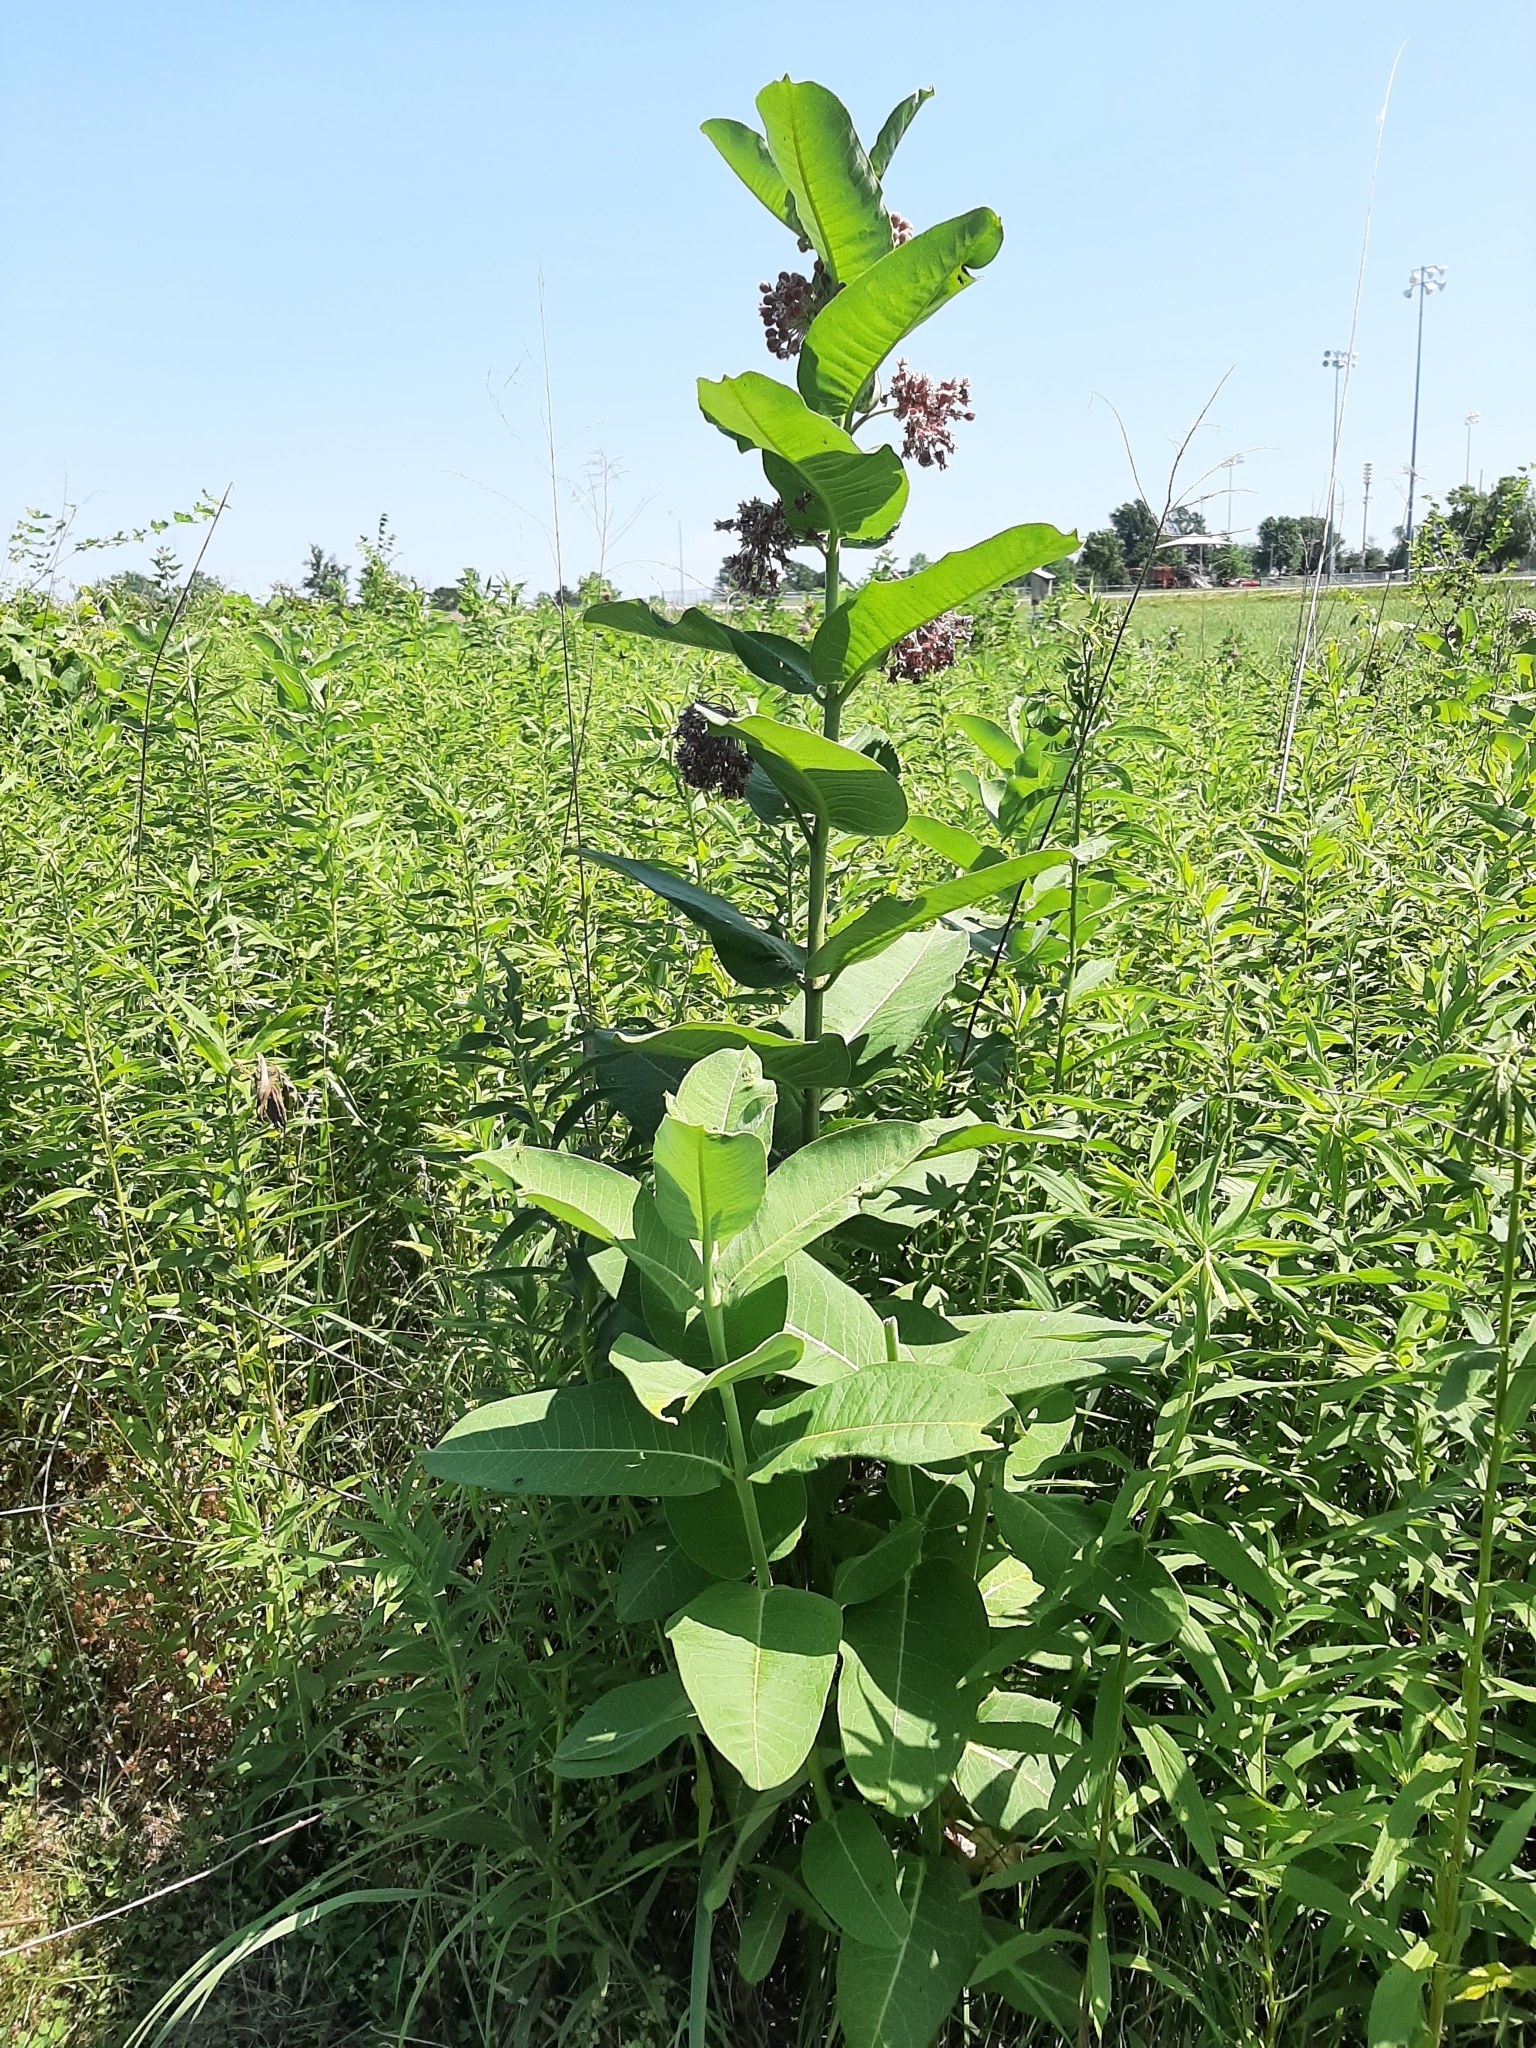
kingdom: Plantae
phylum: Tracheophyta
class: Magnoliopsida
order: Gentianales
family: Apocynaceae
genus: Asclepias
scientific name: Asclepias syriaca
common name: Common milkweed
